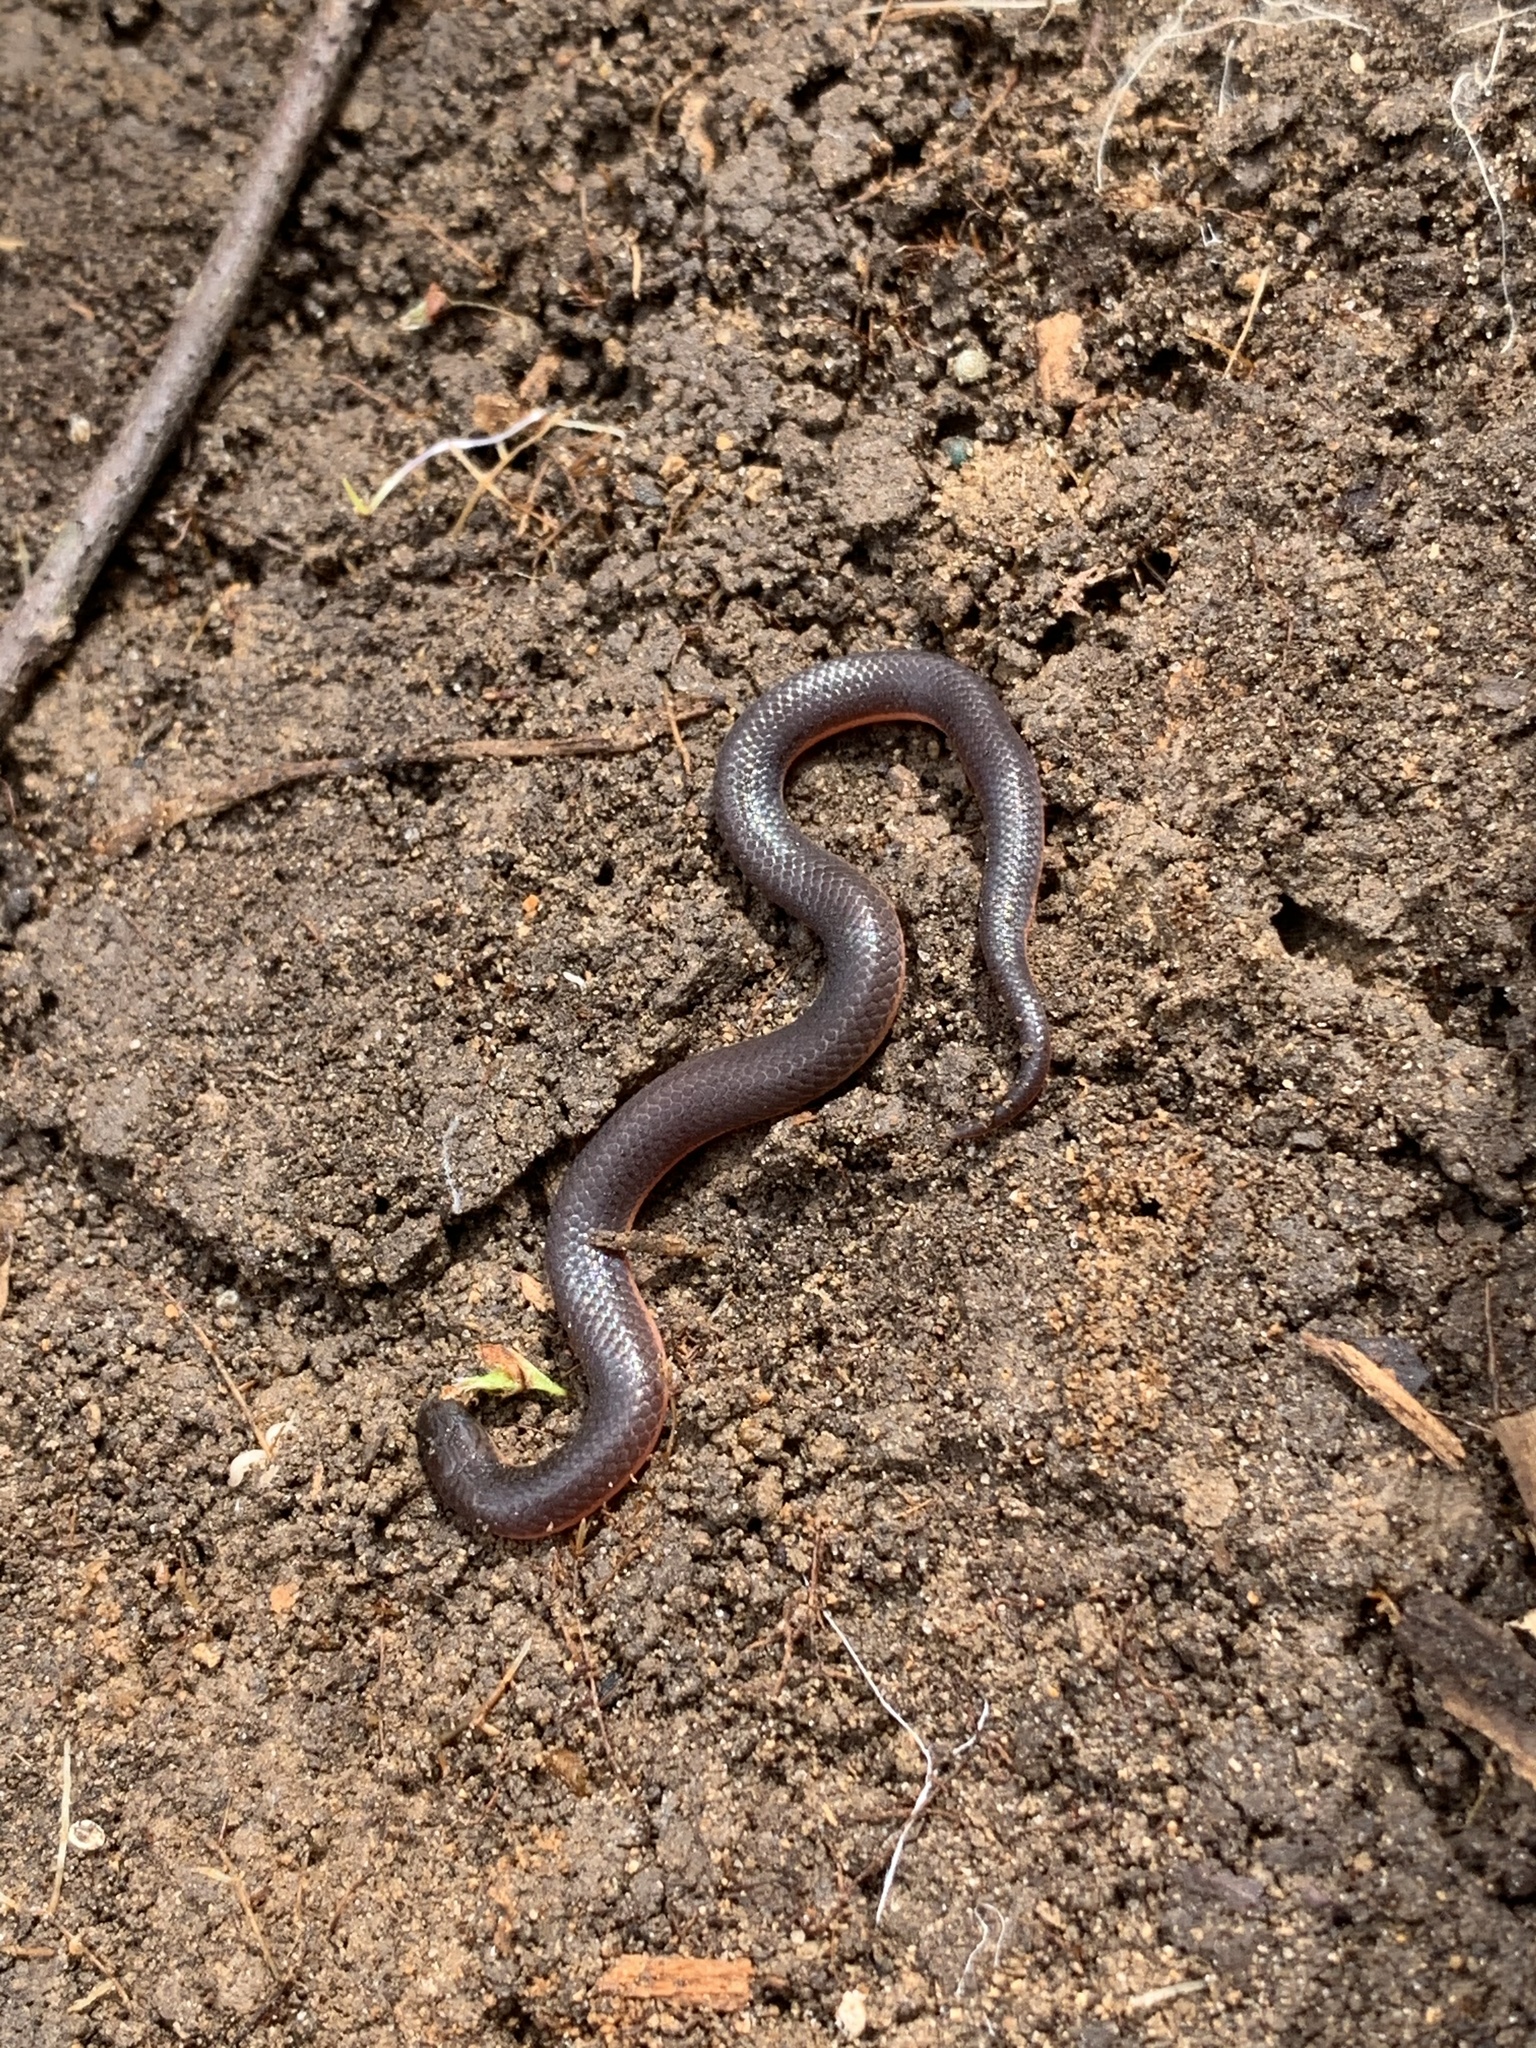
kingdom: Animalia
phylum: Chordata
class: Squamata
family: Colubridae
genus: Carphophis
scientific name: Carphophis amoenus
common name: Eastern worm snake
